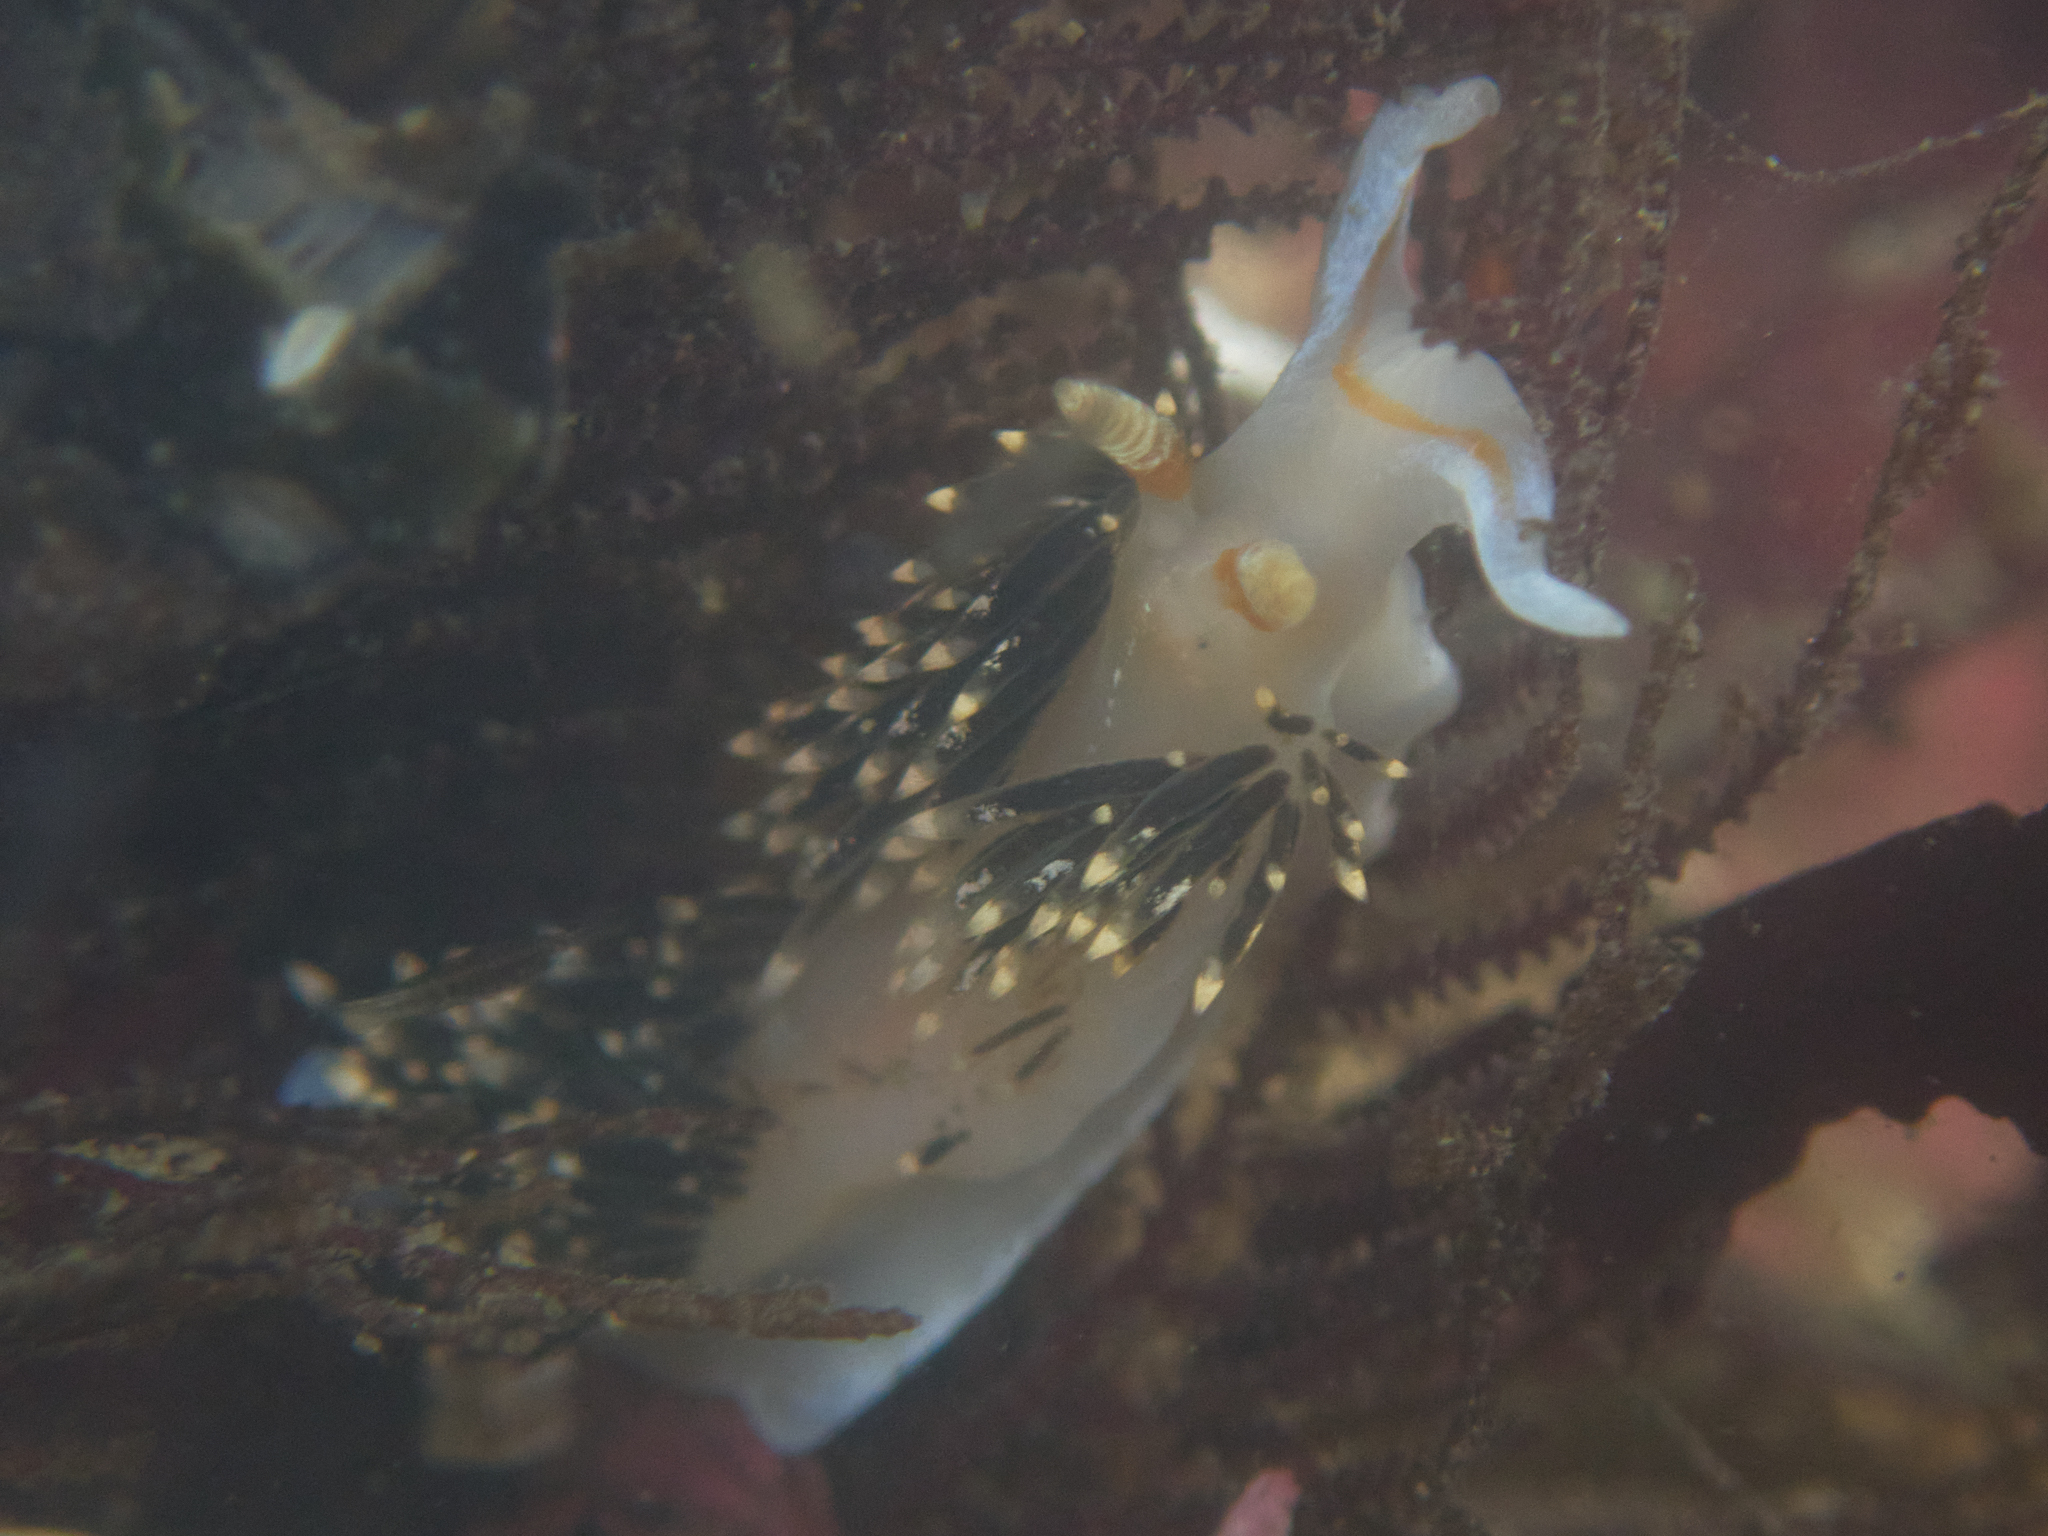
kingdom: Animalia
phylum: Mollusca
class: Gastropoda
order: Nudibranchia
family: Facelinidae
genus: Phidiana
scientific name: Phidiana hiltoni
